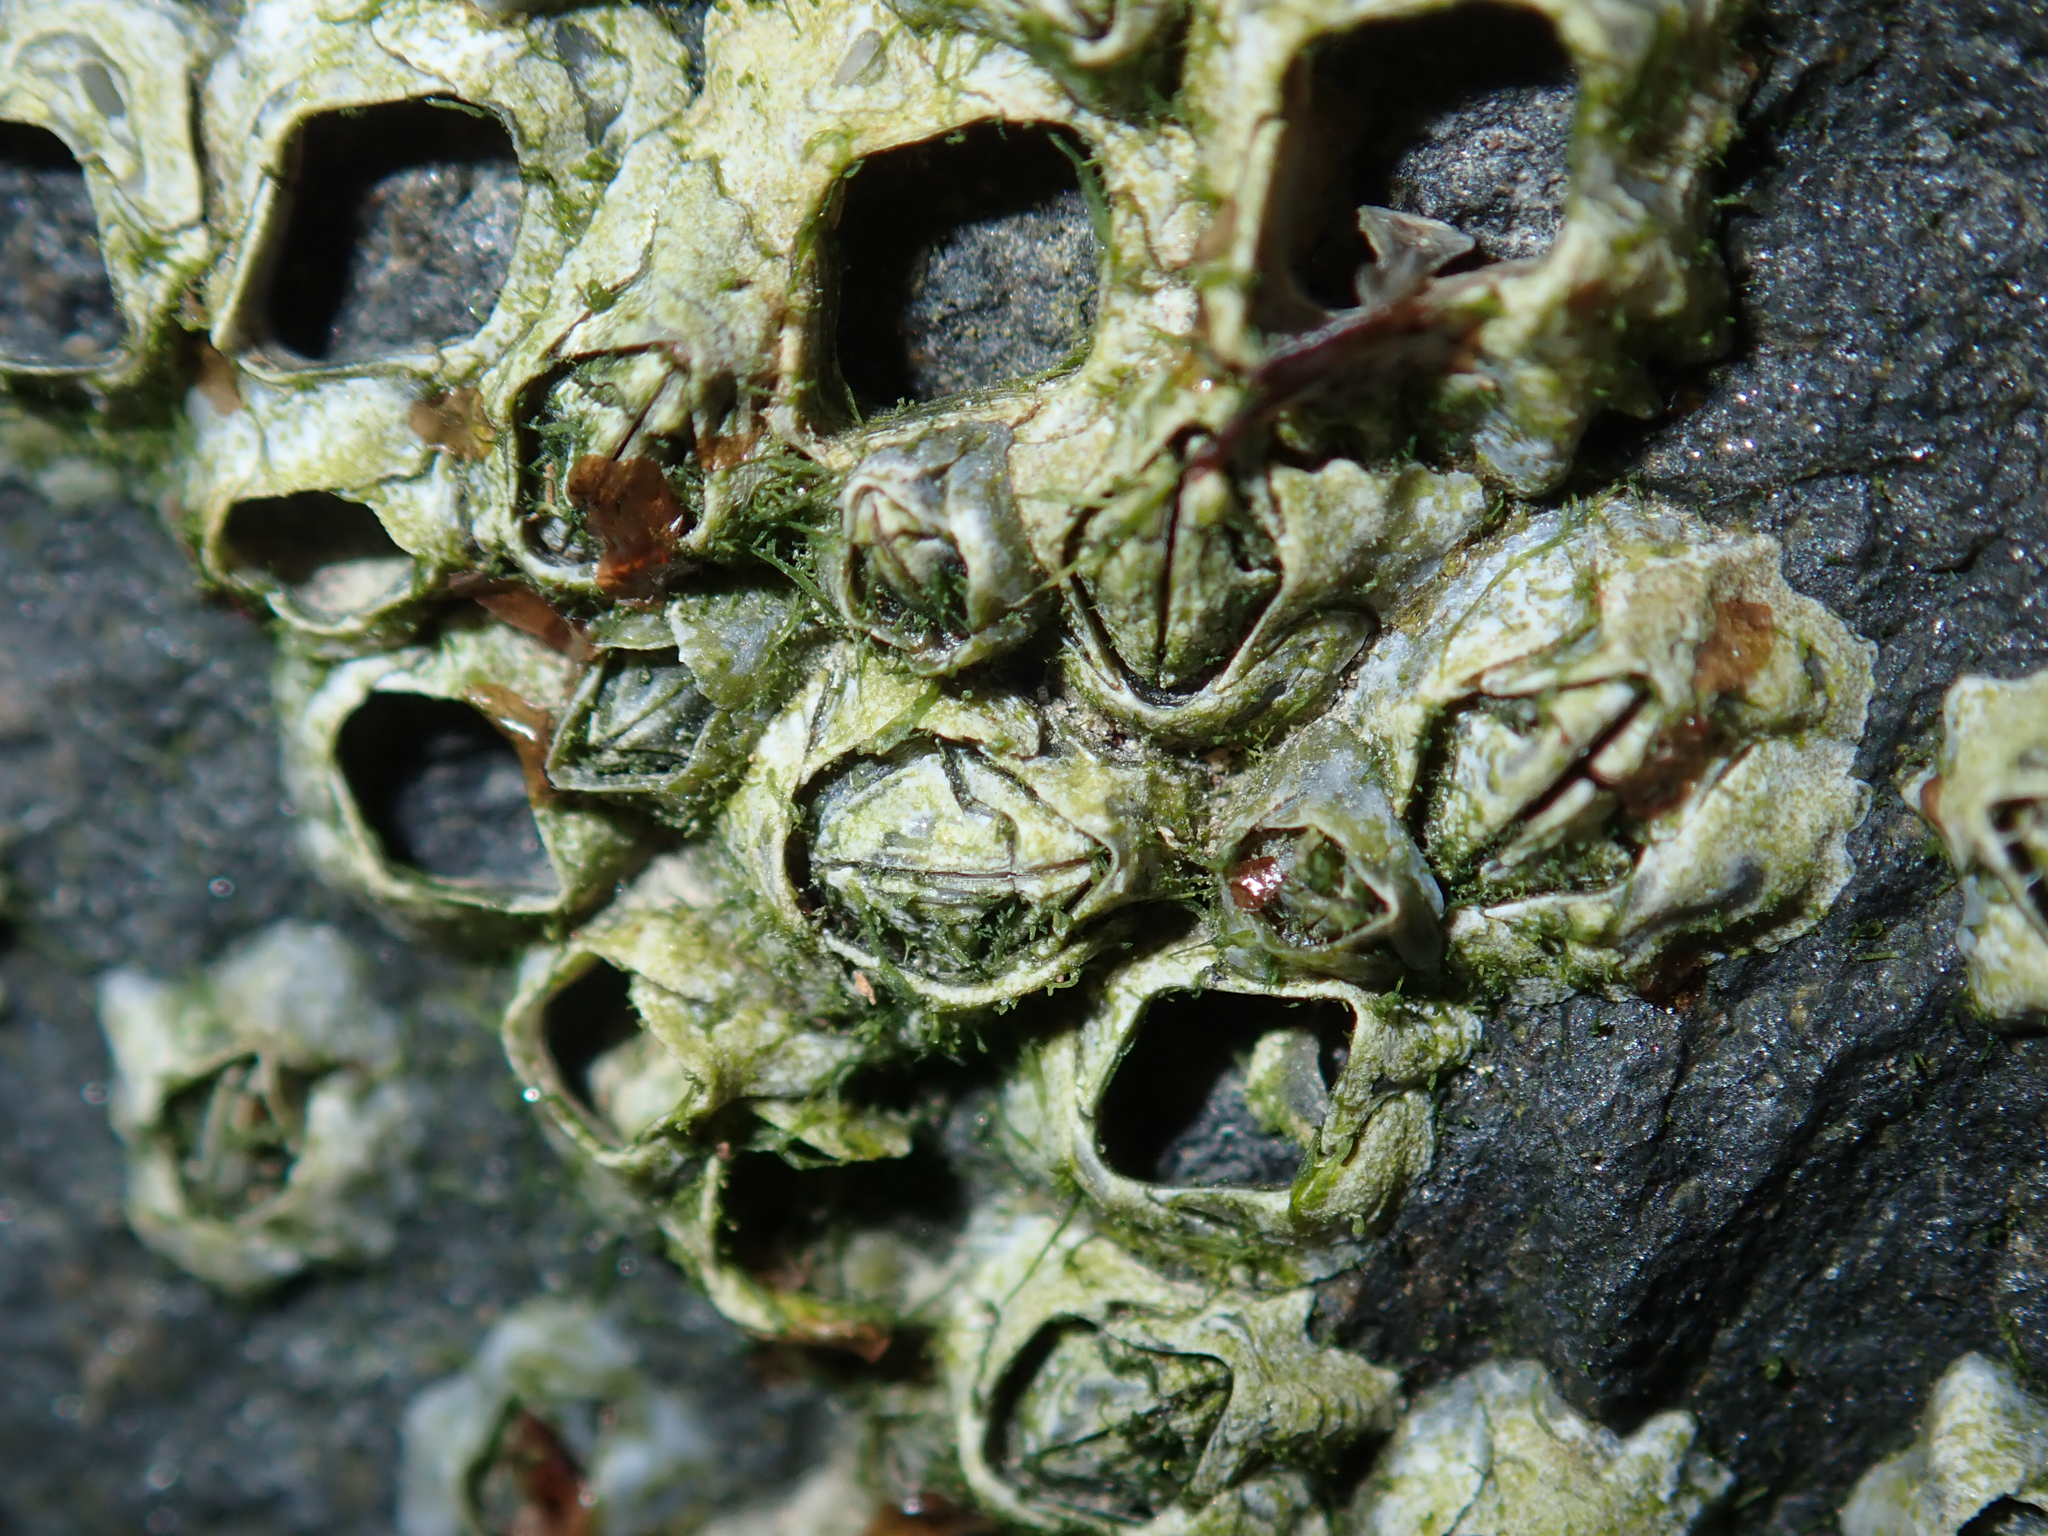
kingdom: Animalia
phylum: Arthropoda
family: Elminiidae
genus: Austrominius
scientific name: Austrominius modestus
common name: Australasian barnacle
